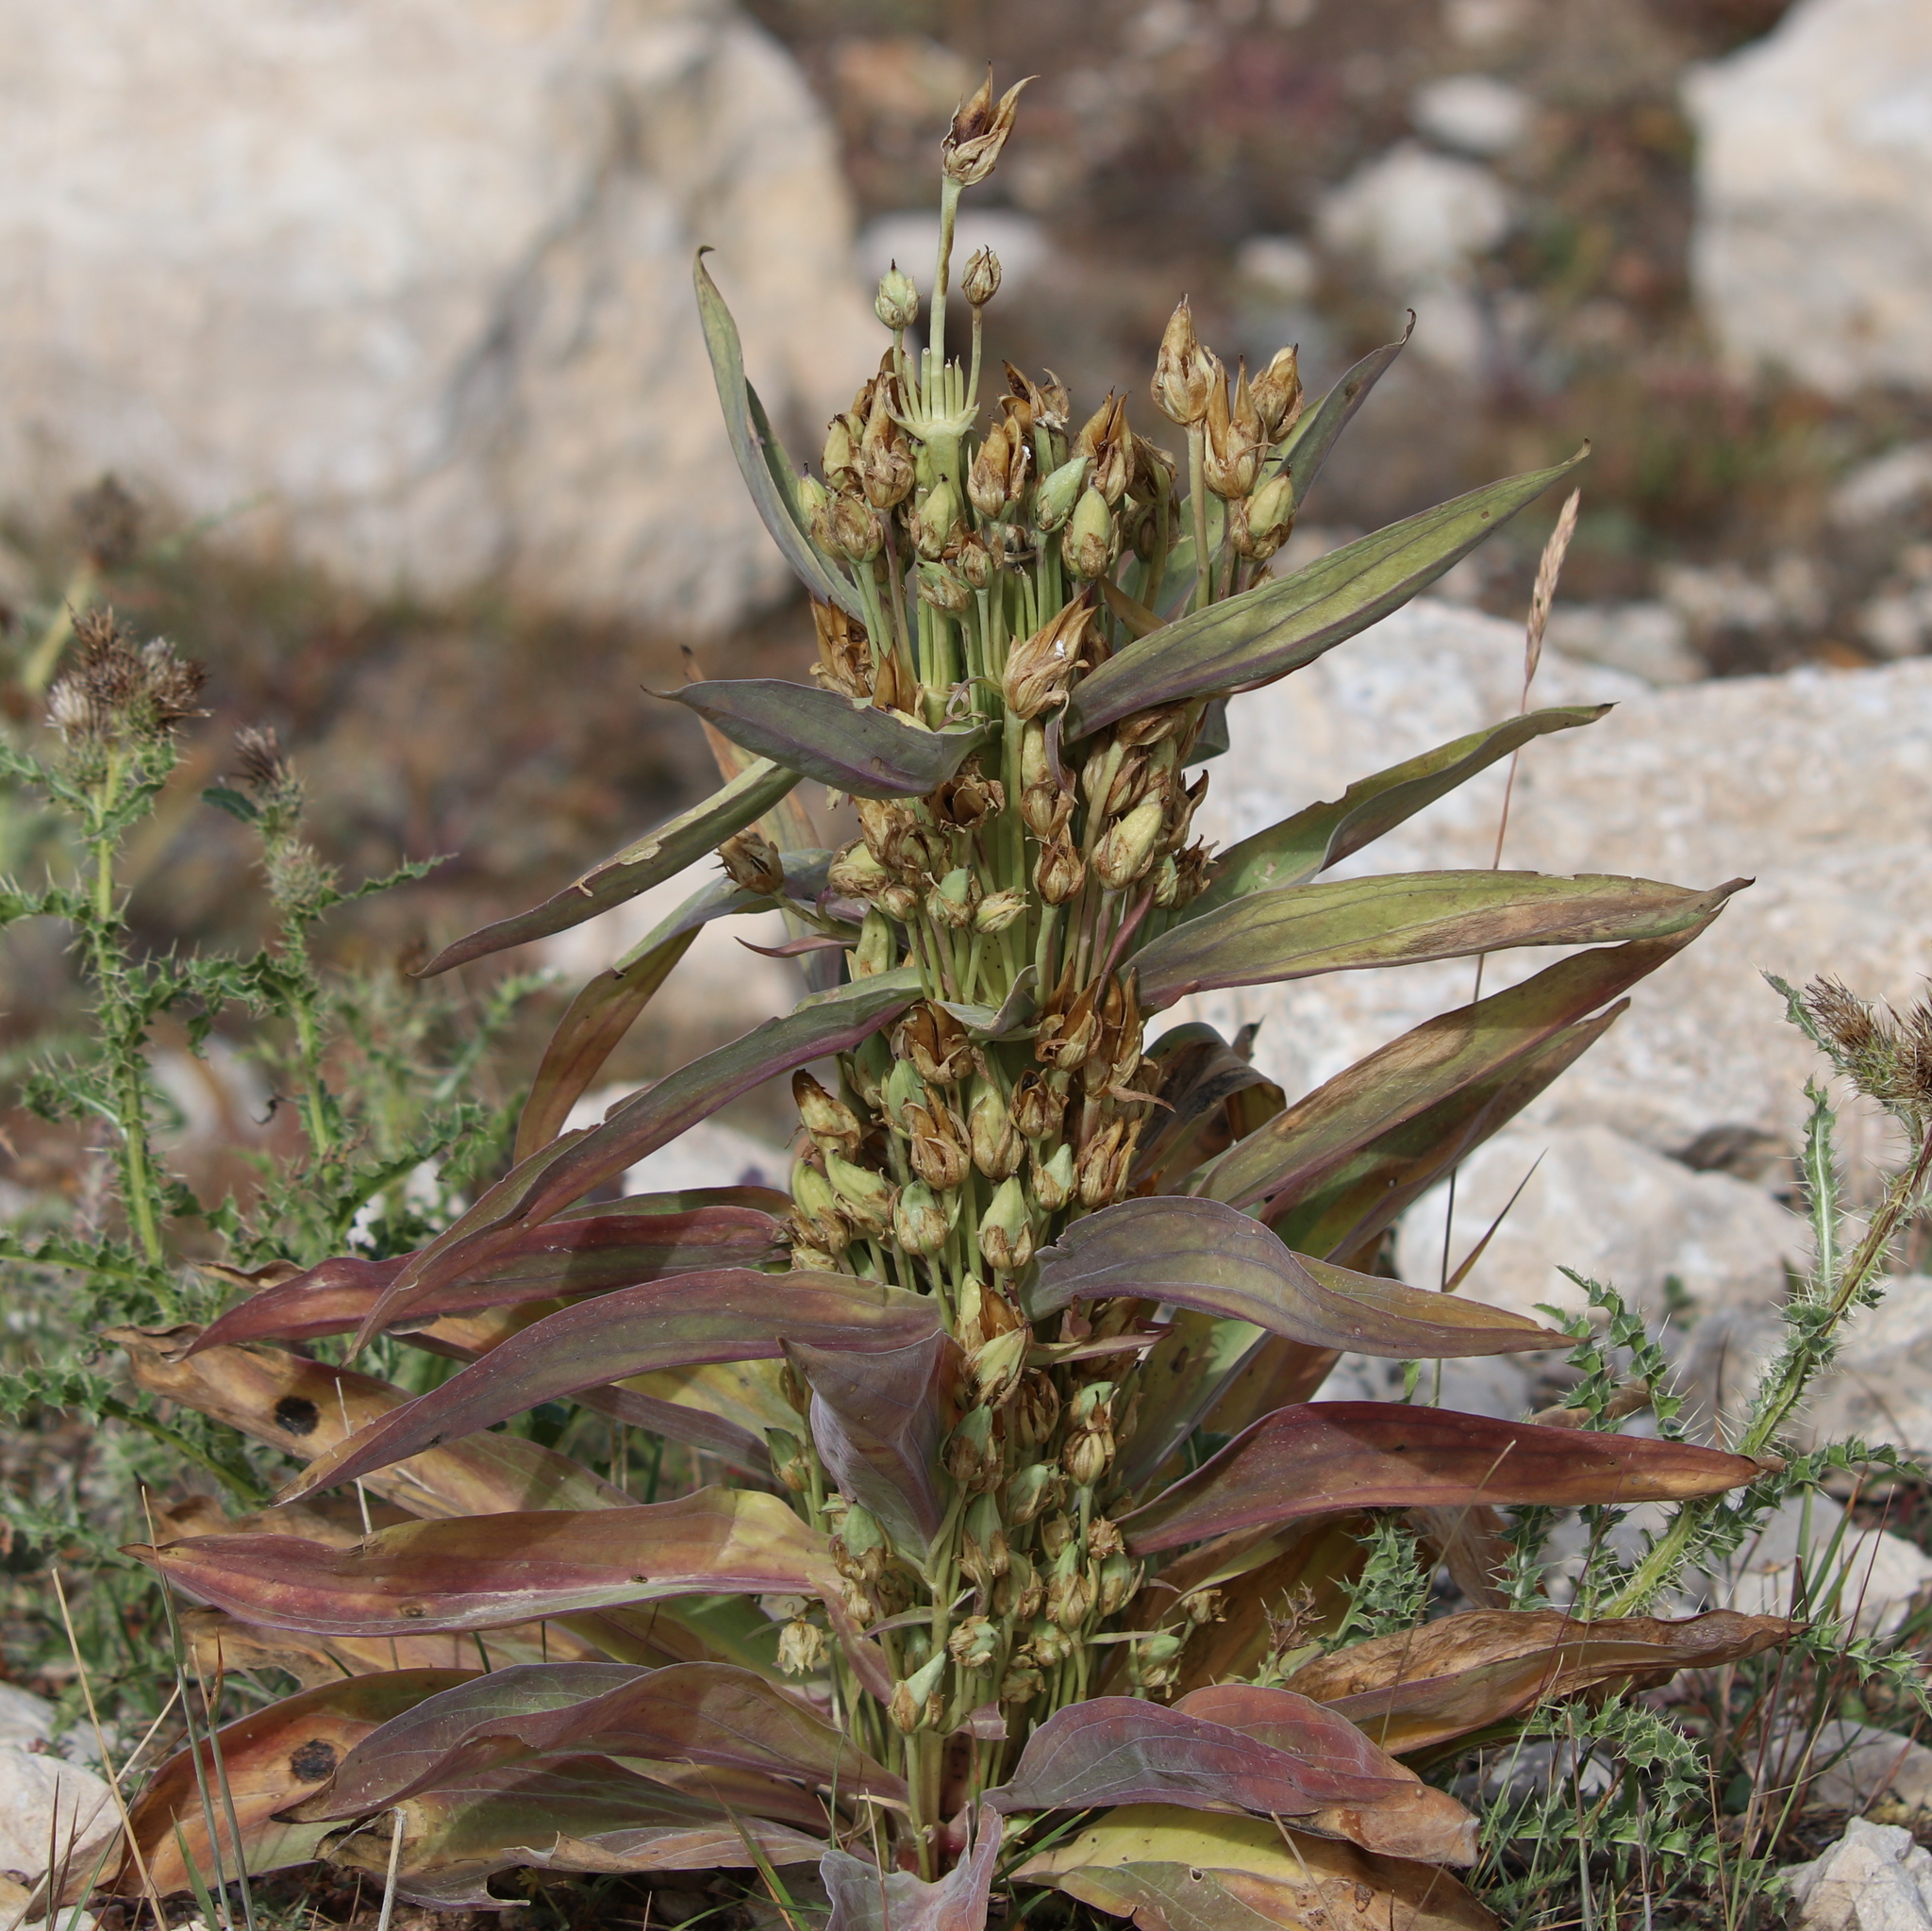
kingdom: Plantae
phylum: Tracheophyta
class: Magnoliopsida
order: Gentianales
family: Gentianaceae
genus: Frasera
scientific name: Frasera speciosa
